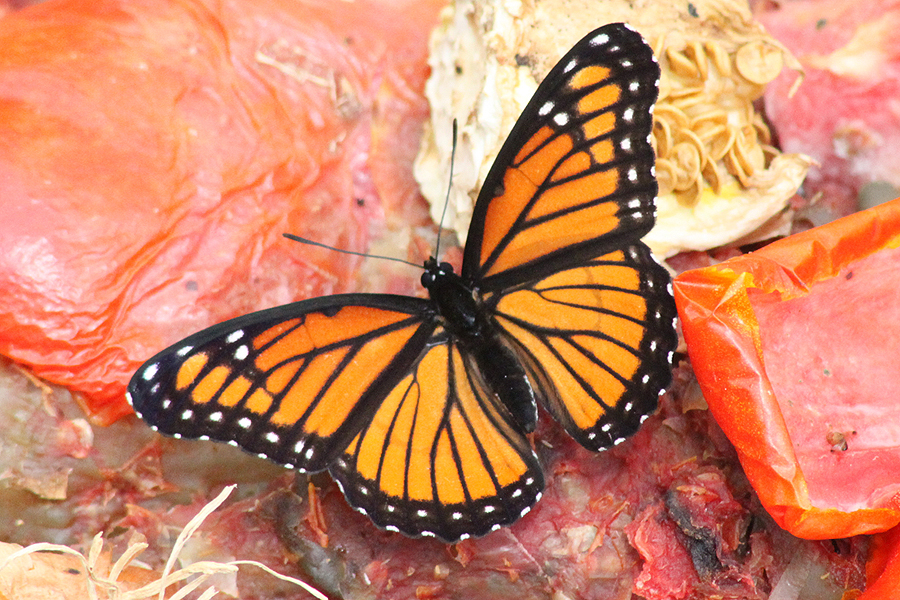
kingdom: Animalia
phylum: Arthropoda
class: Insecta
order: Lepidoptera
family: Nymphalidae
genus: Limenitis
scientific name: Limenitis archippus
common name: Viceroy
